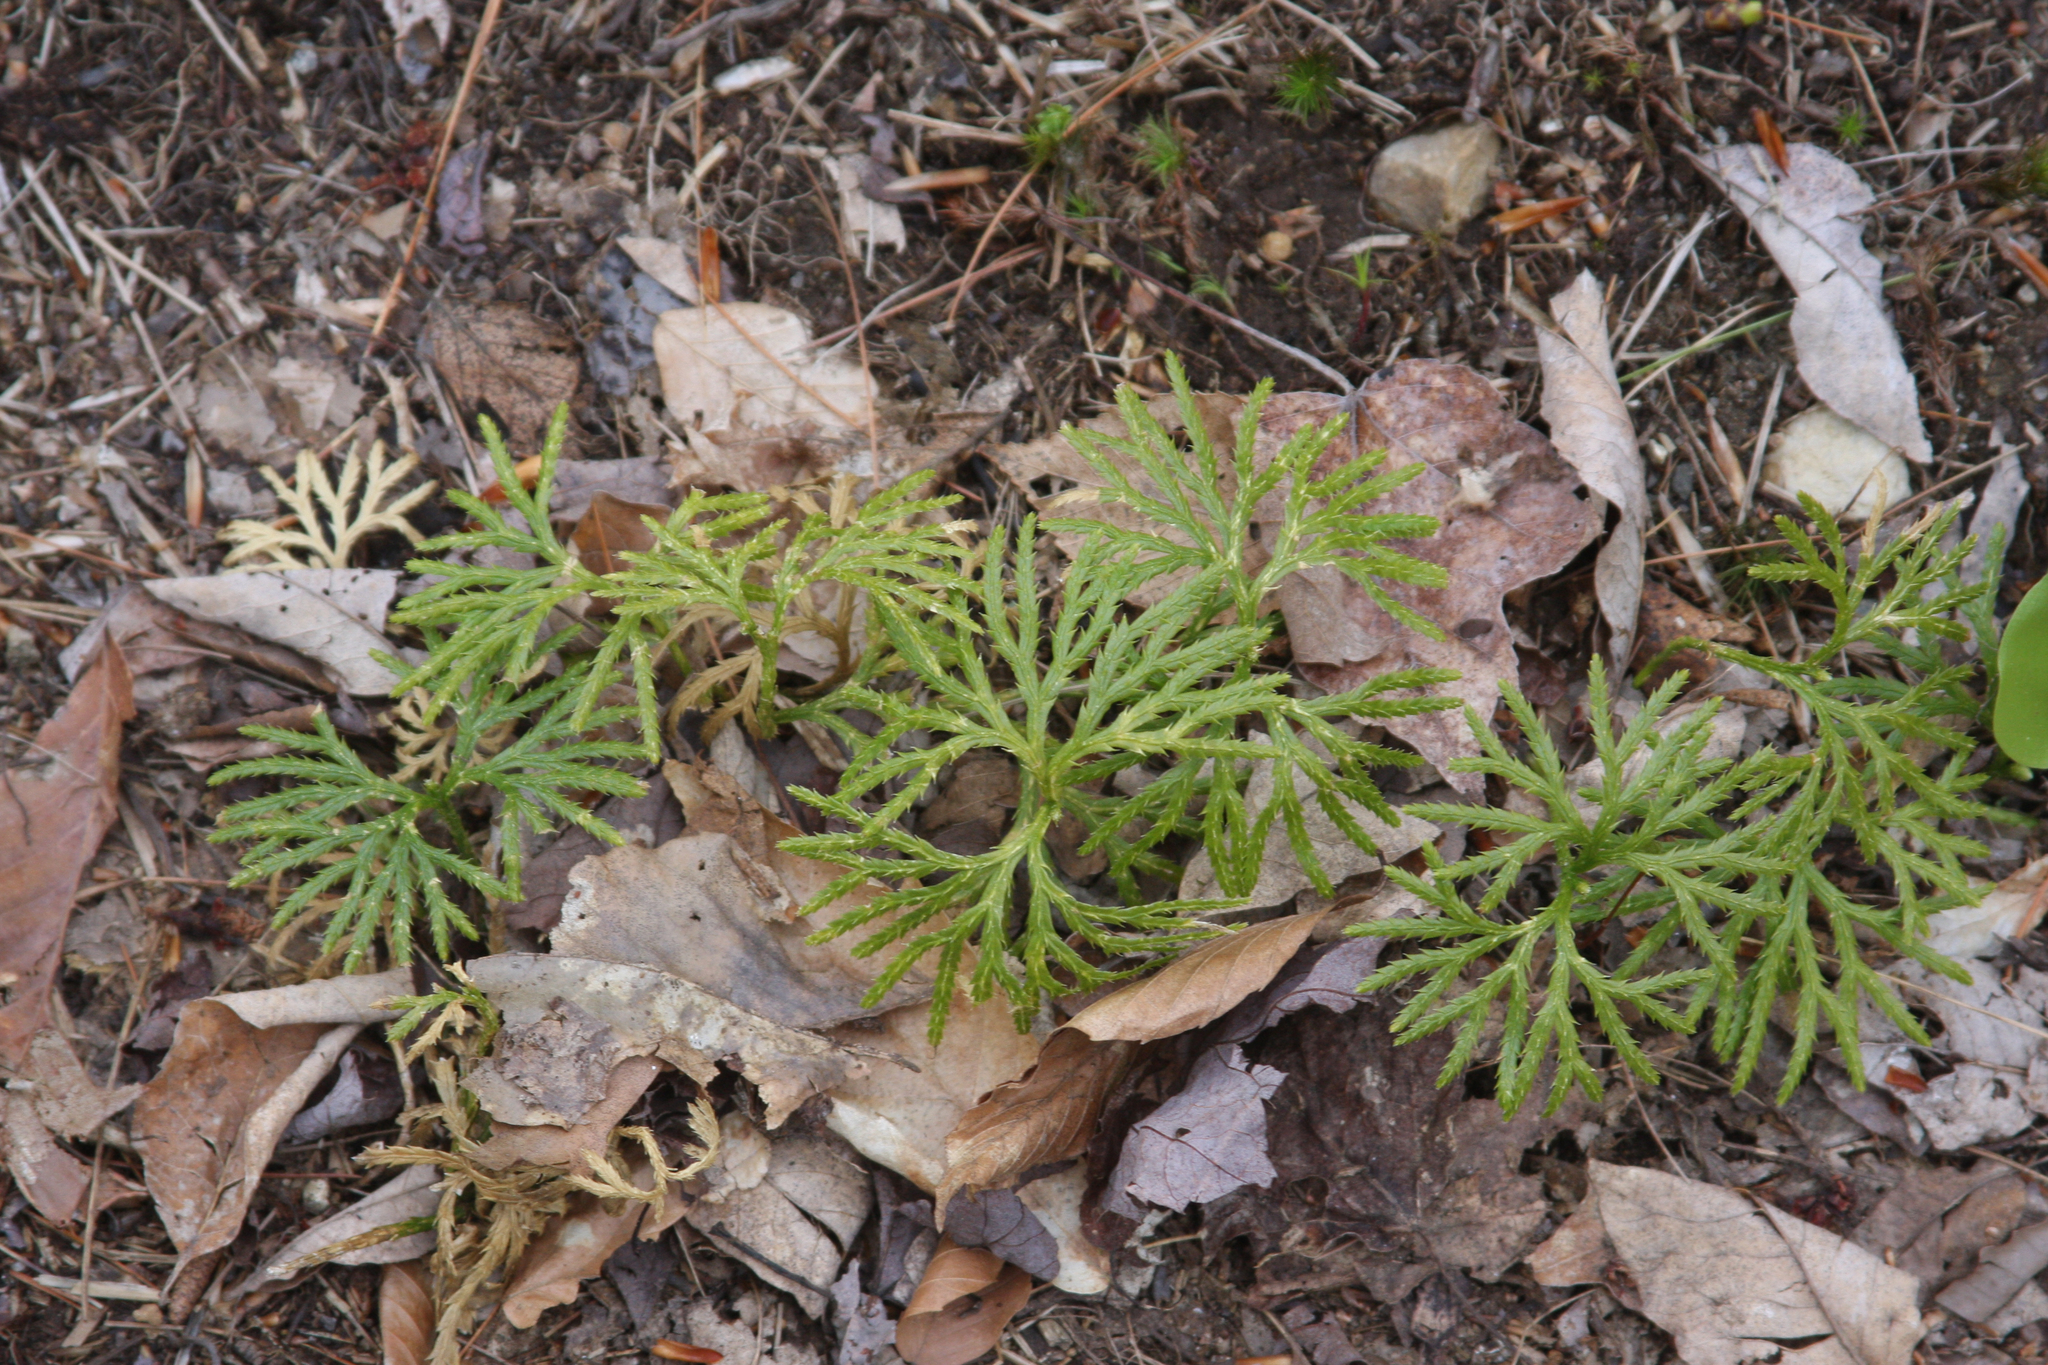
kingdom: Plantae
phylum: Tracheophyta
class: Lycopodiopsida
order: Lycopodiales
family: Lycopodiaceae
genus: Diphasiastrum
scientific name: Diphasiastrum digitatum
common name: Southern running-pine
